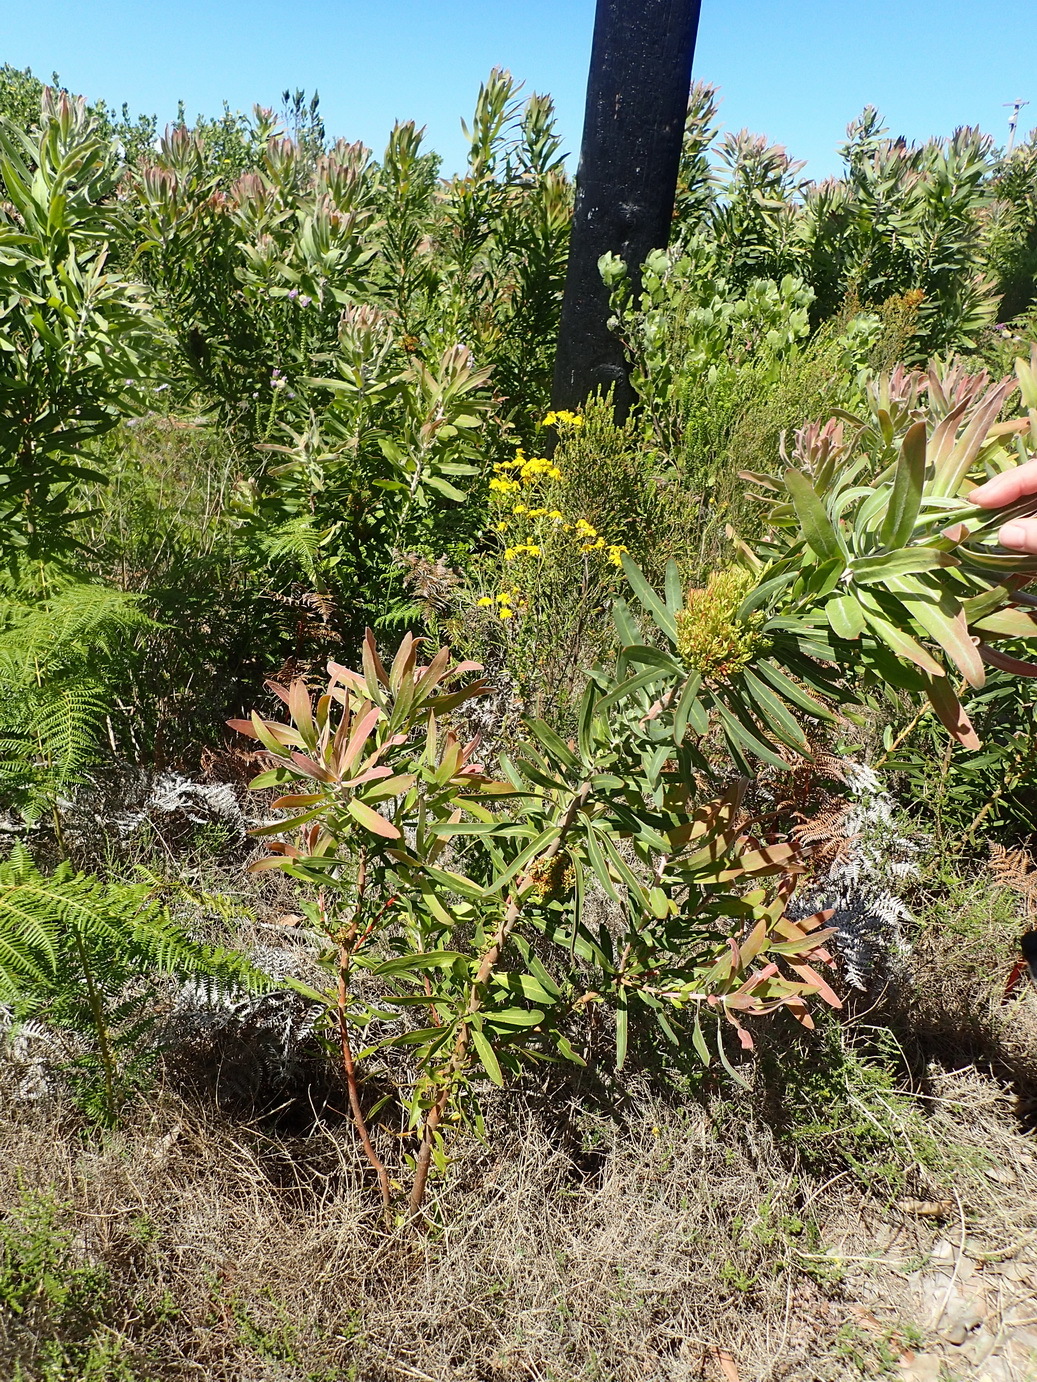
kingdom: Plantae
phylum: Tracheophyta
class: Magnoliopsida
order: Proteales
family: Proteaceae
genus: Protea
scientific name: Protea neriifolia
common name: Blue sugarbush
